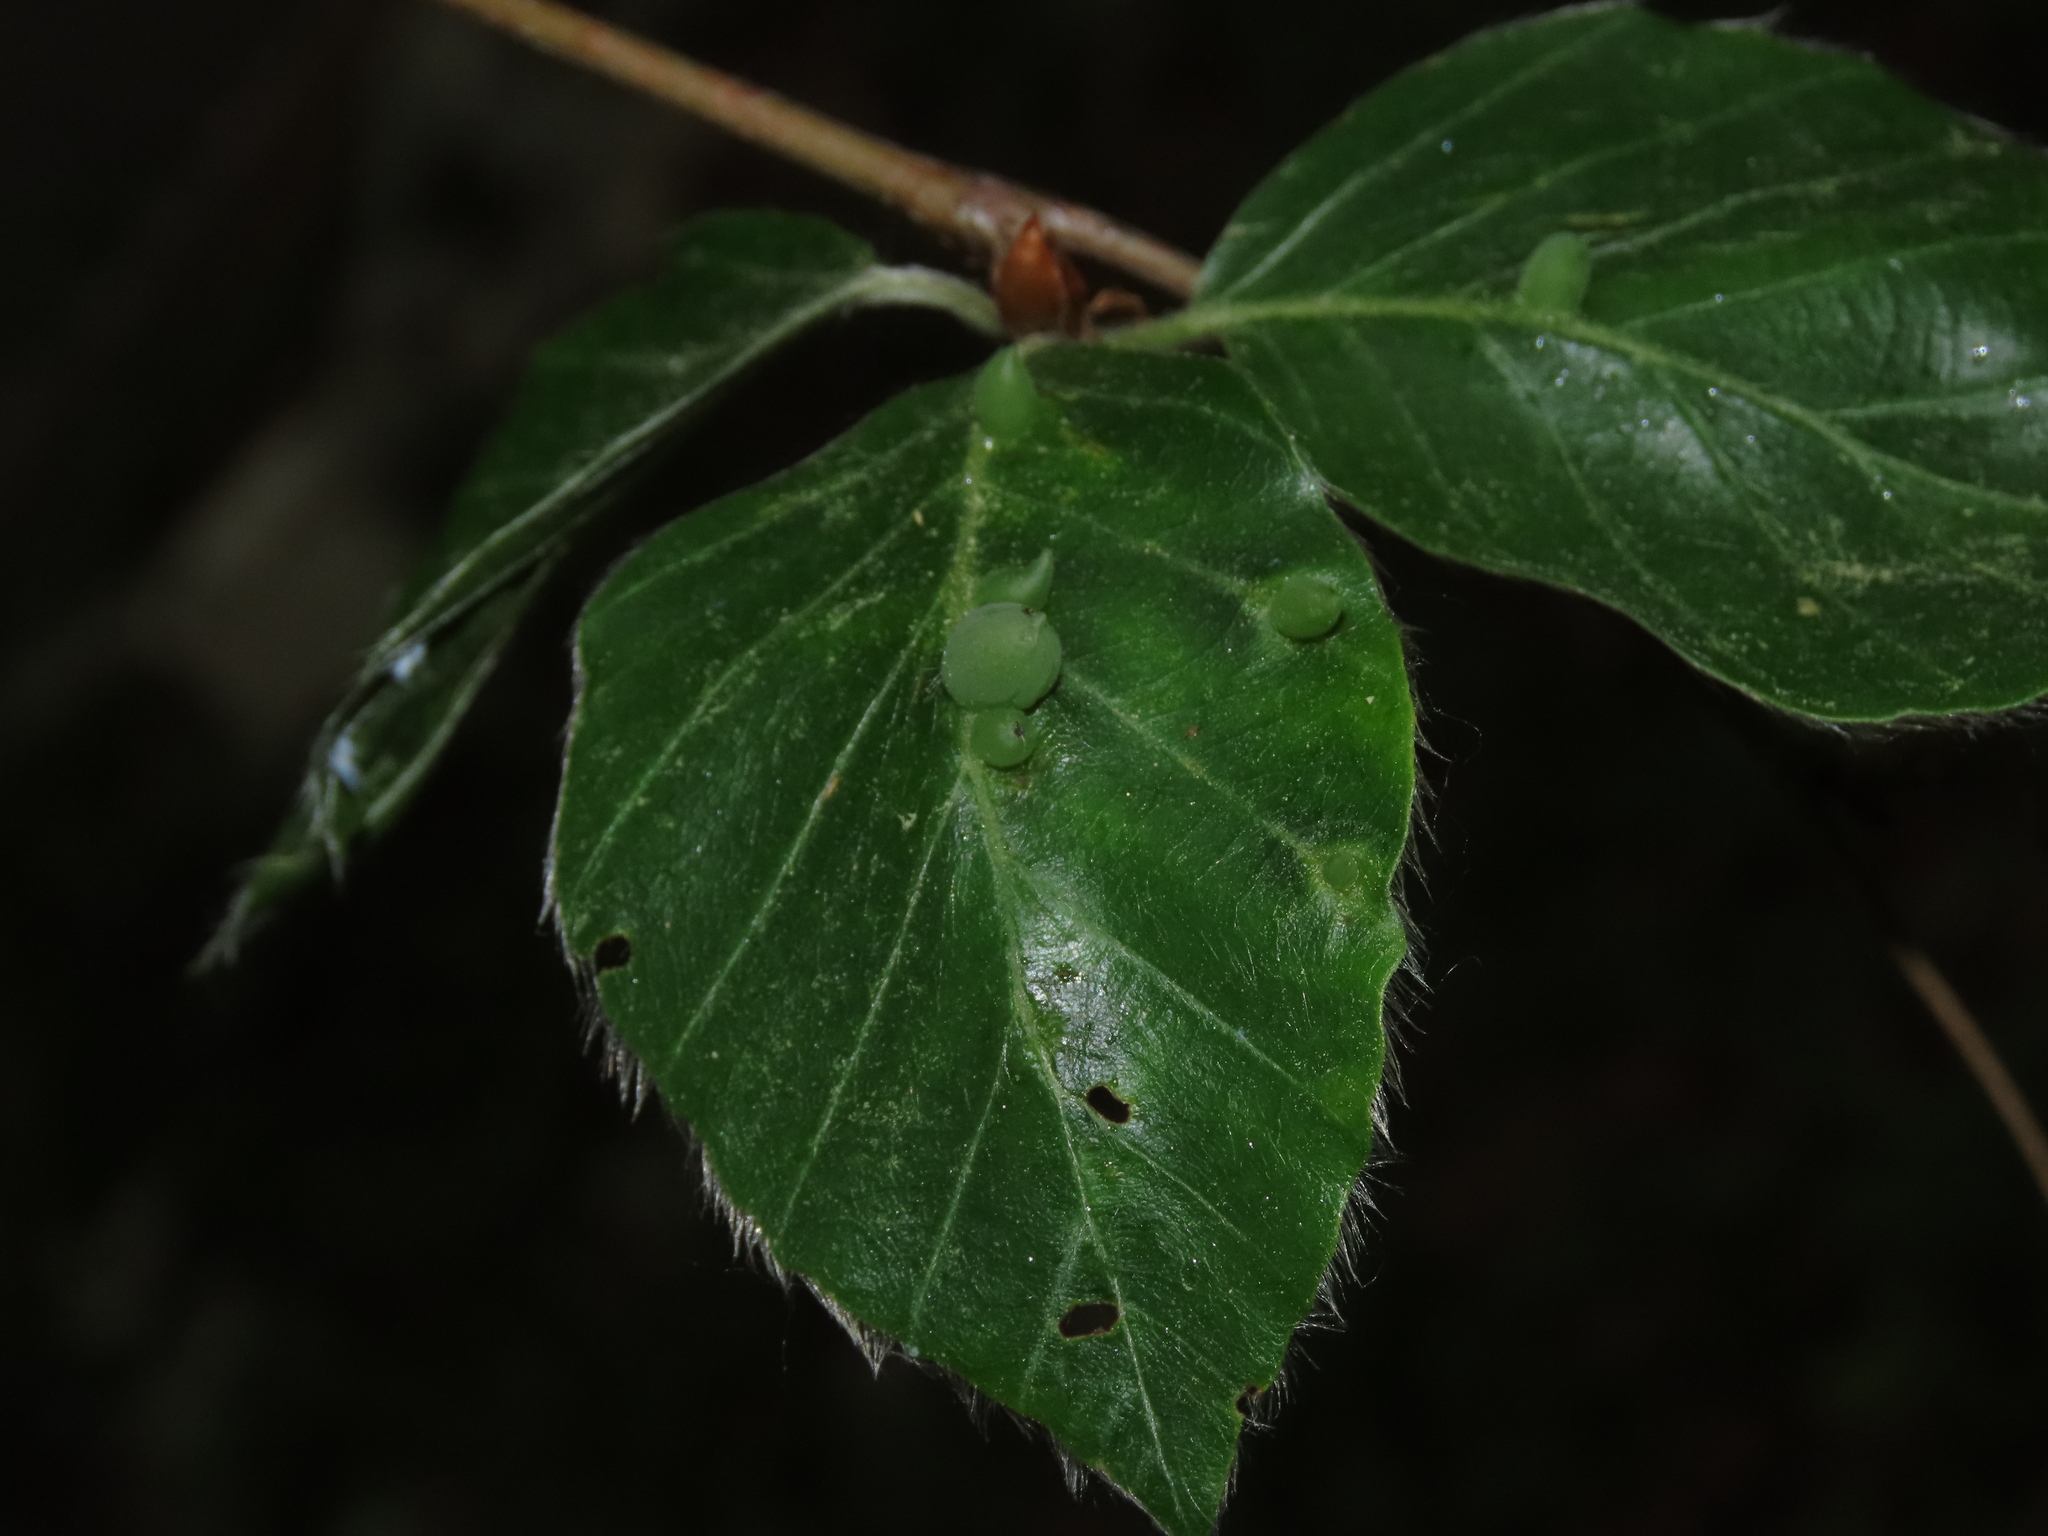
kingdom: Plantae
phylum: Tracheophyta
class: Magnoliopsida
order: Fagales
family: Fagaceae
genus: Fagus
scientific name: Fagus sylvatica
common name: Beech
